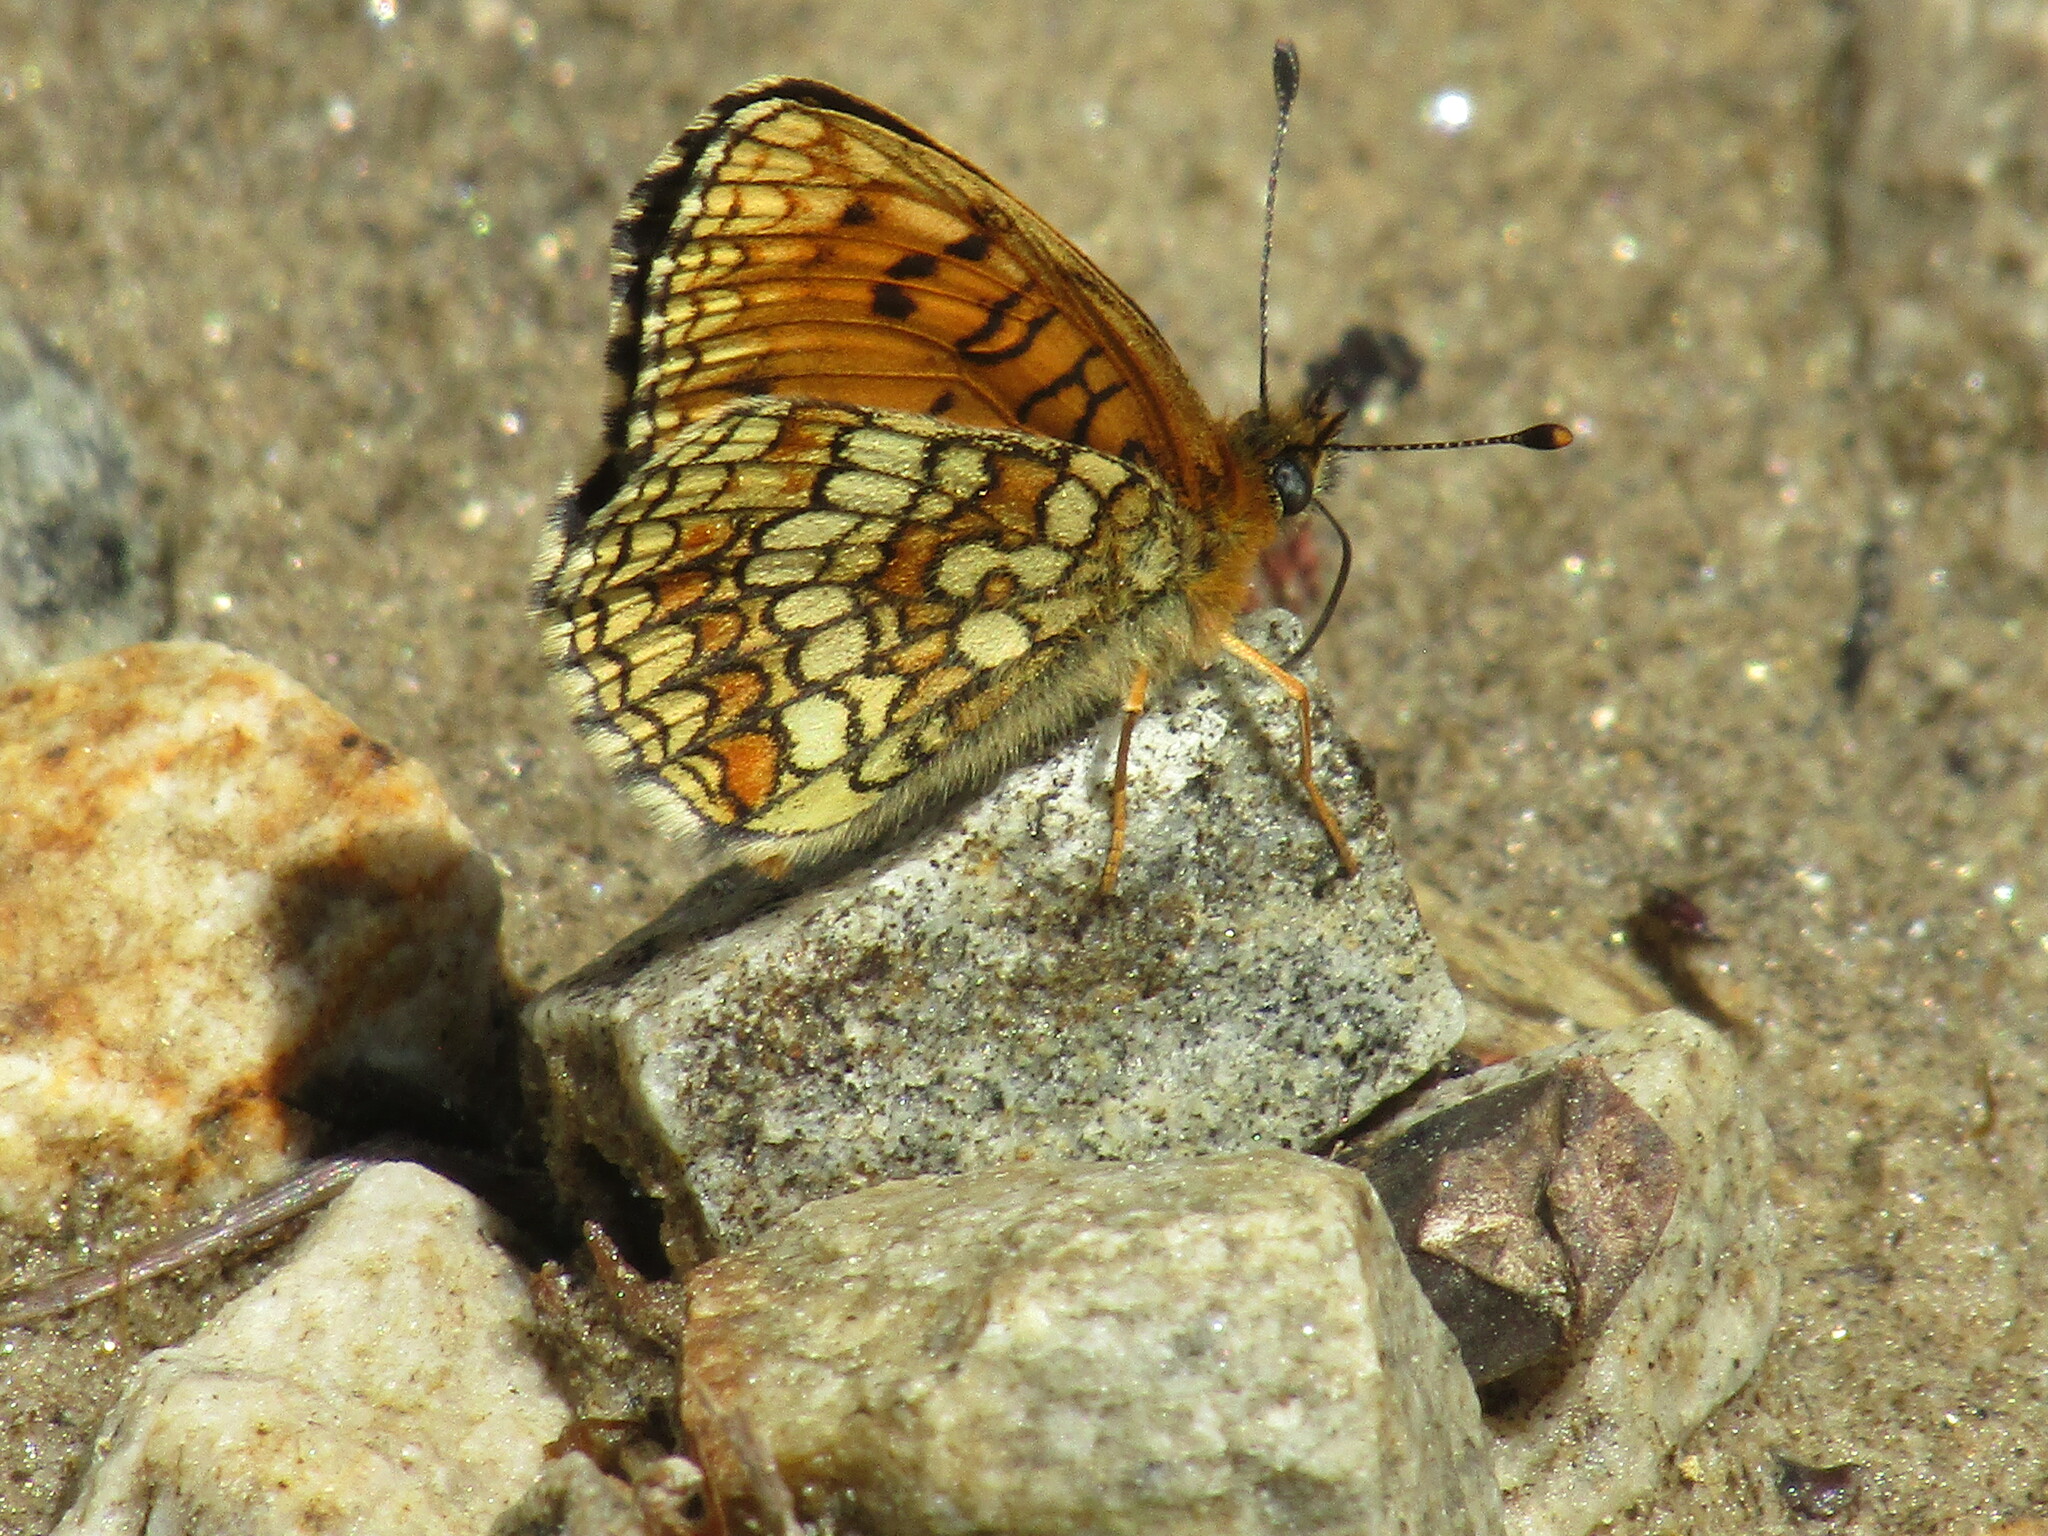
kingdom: Animalia
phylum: Arthropoda
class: Insecta
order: Lepidoptera
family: Nymphalidae
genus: Melitaea
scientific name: Melitaea athalia
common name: Heath fritillary
